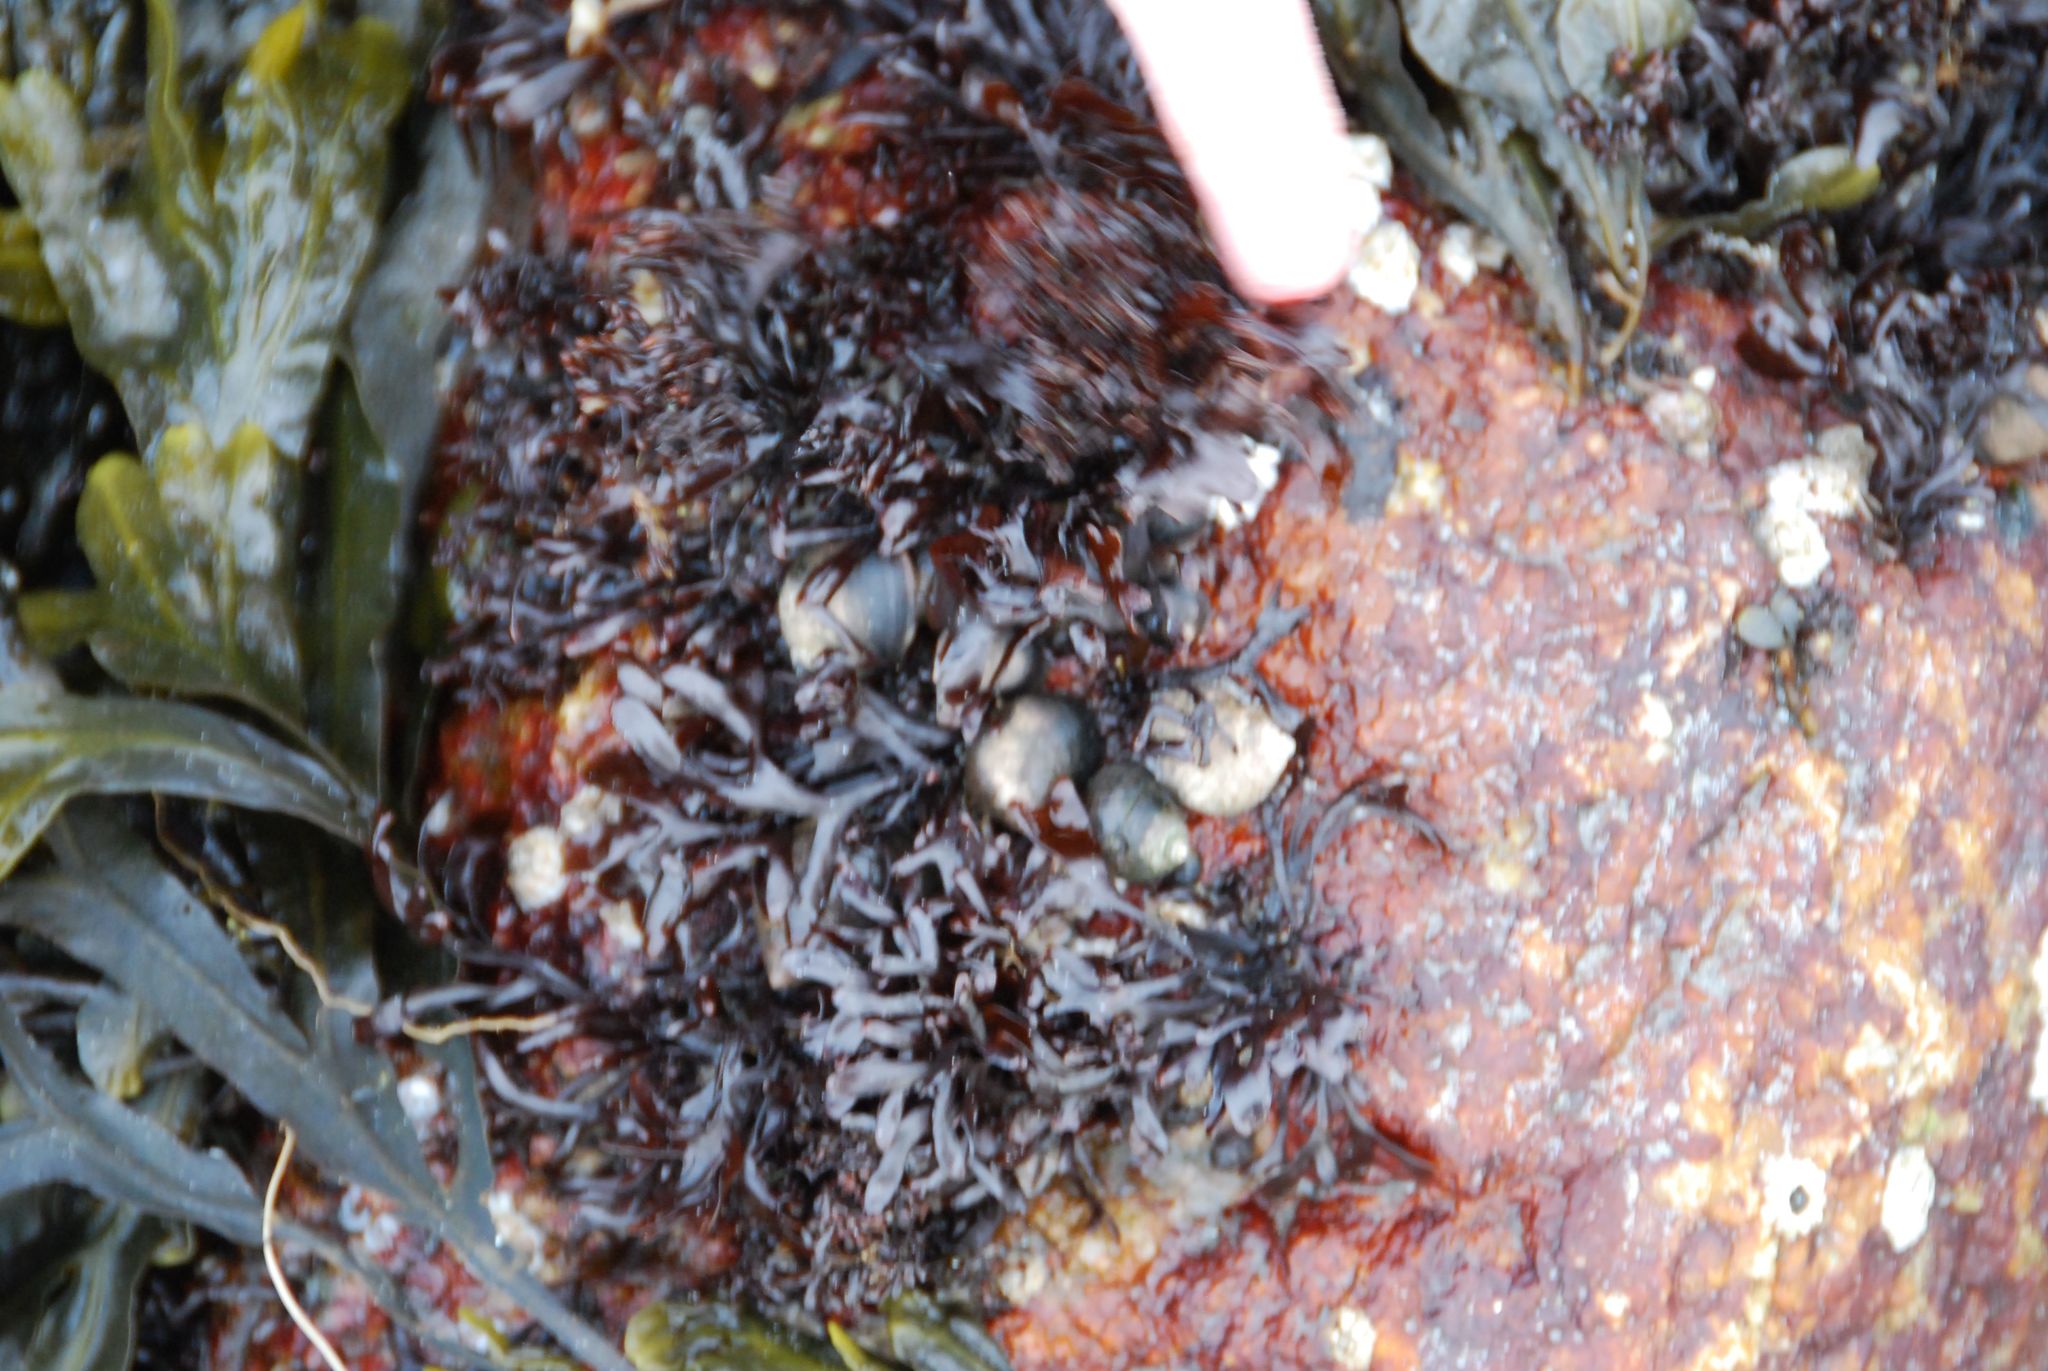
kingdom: Plantae
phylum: Rhodophyta
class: Florideophyceae
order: Gigartinales
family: Gigartinaceae
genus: Chondrus
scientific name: Chondrus crispus
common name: Carrageen
